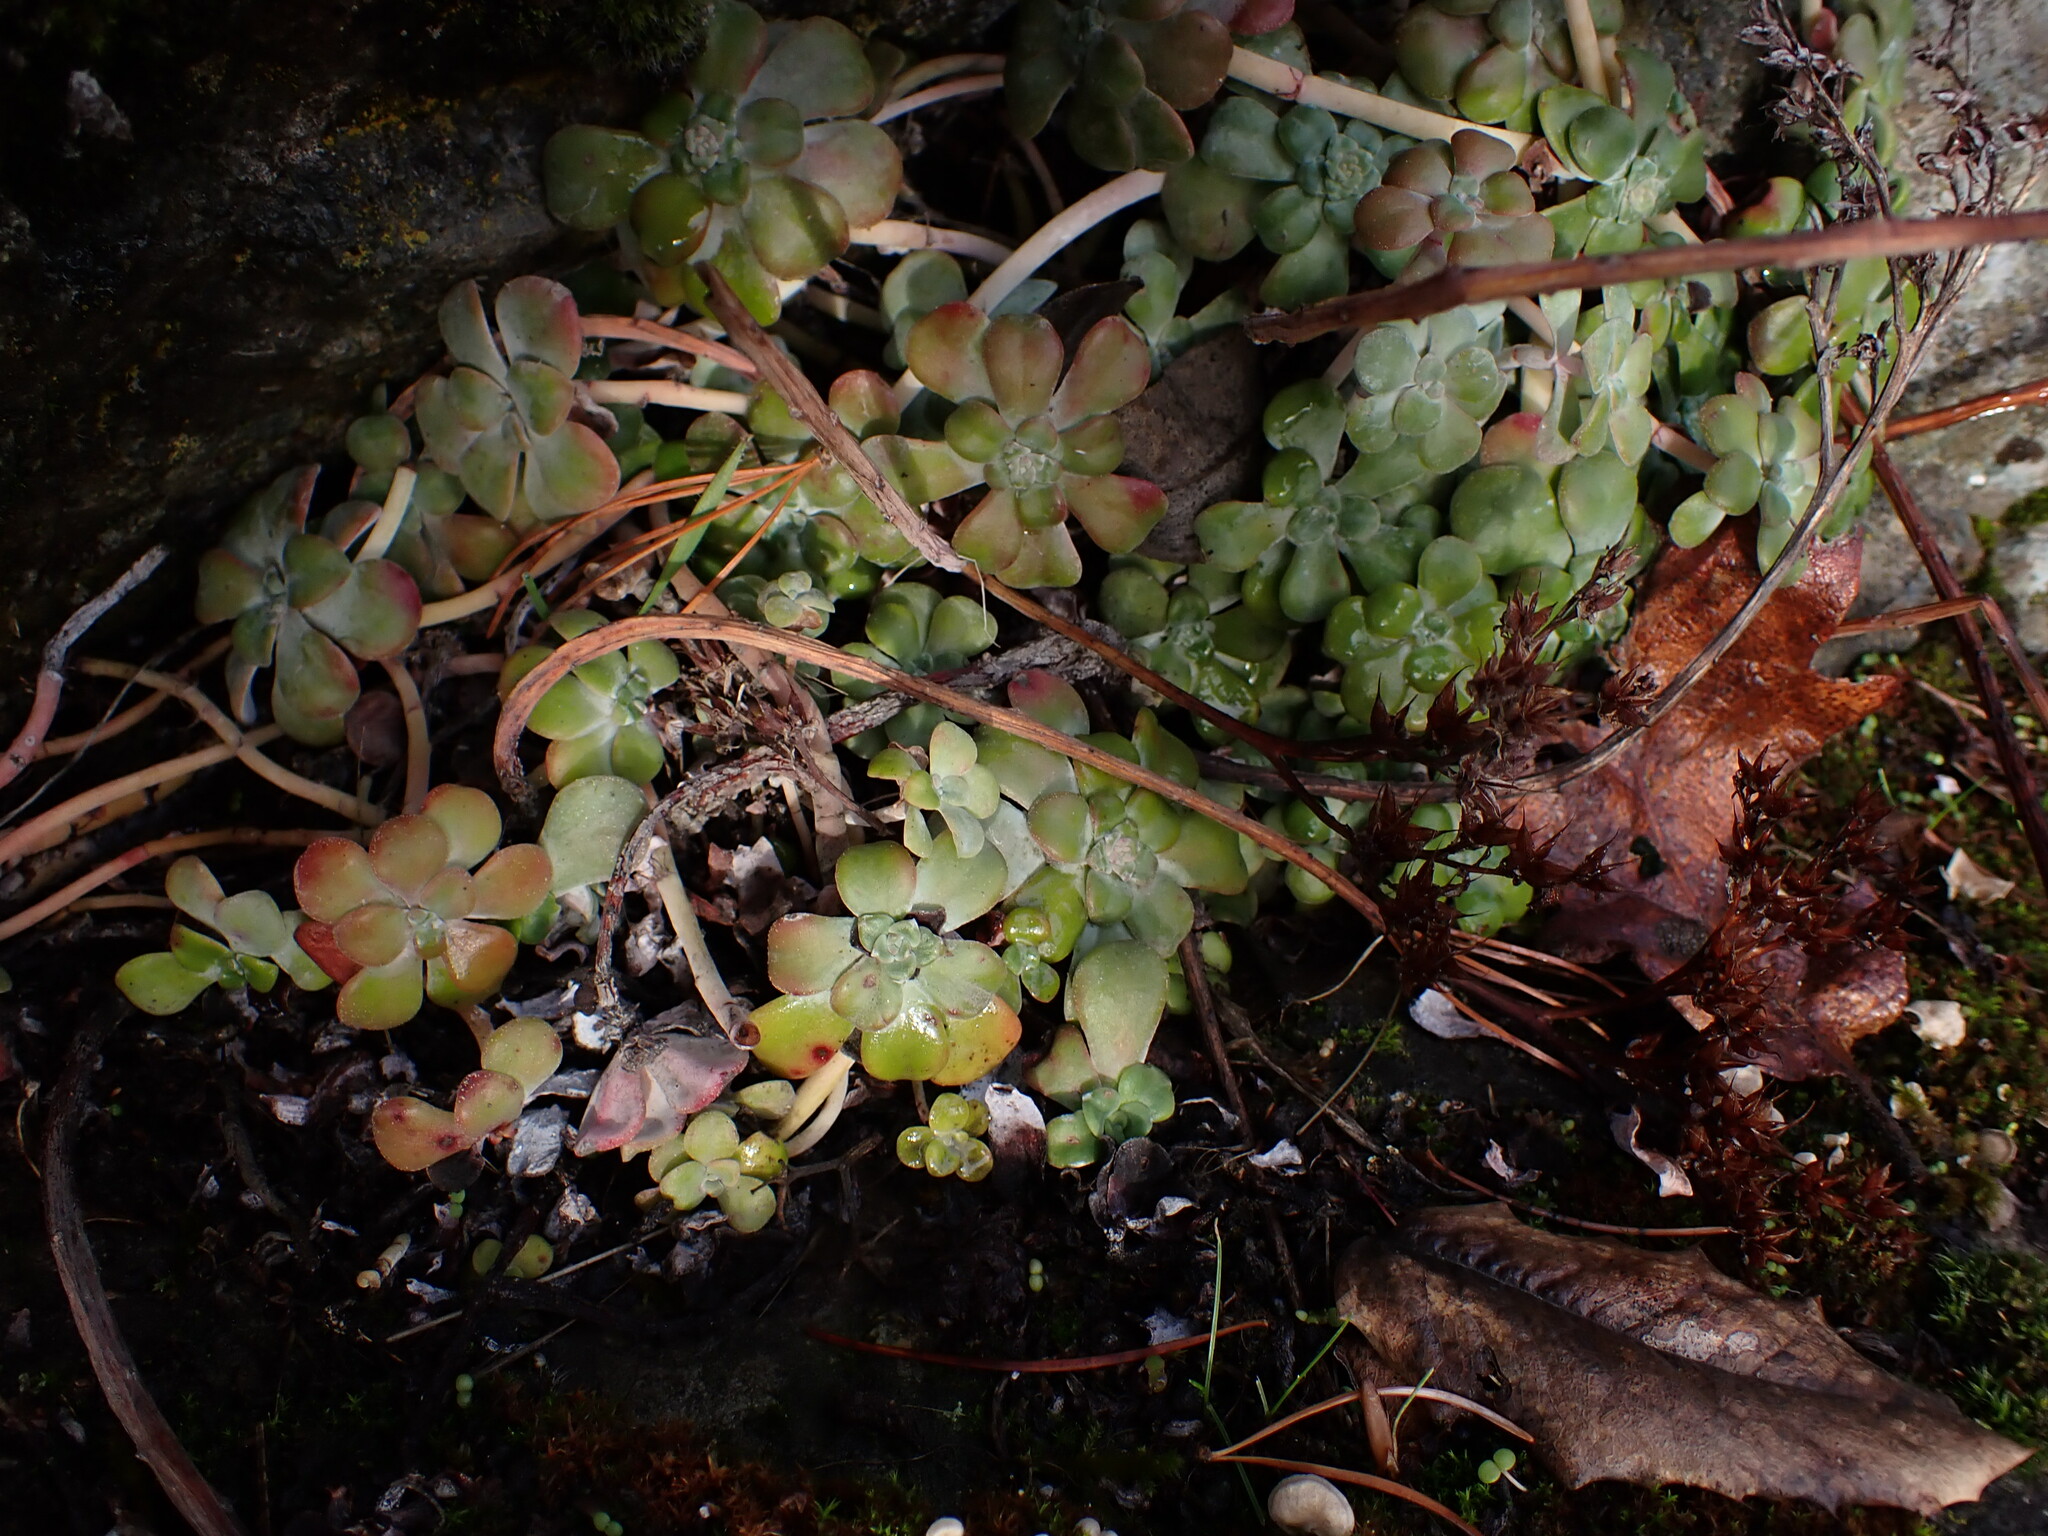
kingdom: Plantae
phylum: Tracheophyta
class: Magnoliopsida
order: Saxifragales
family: Crassulaceae
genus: Sedum
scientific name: Sedum spathulifolium
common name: Colorado stonecrop
